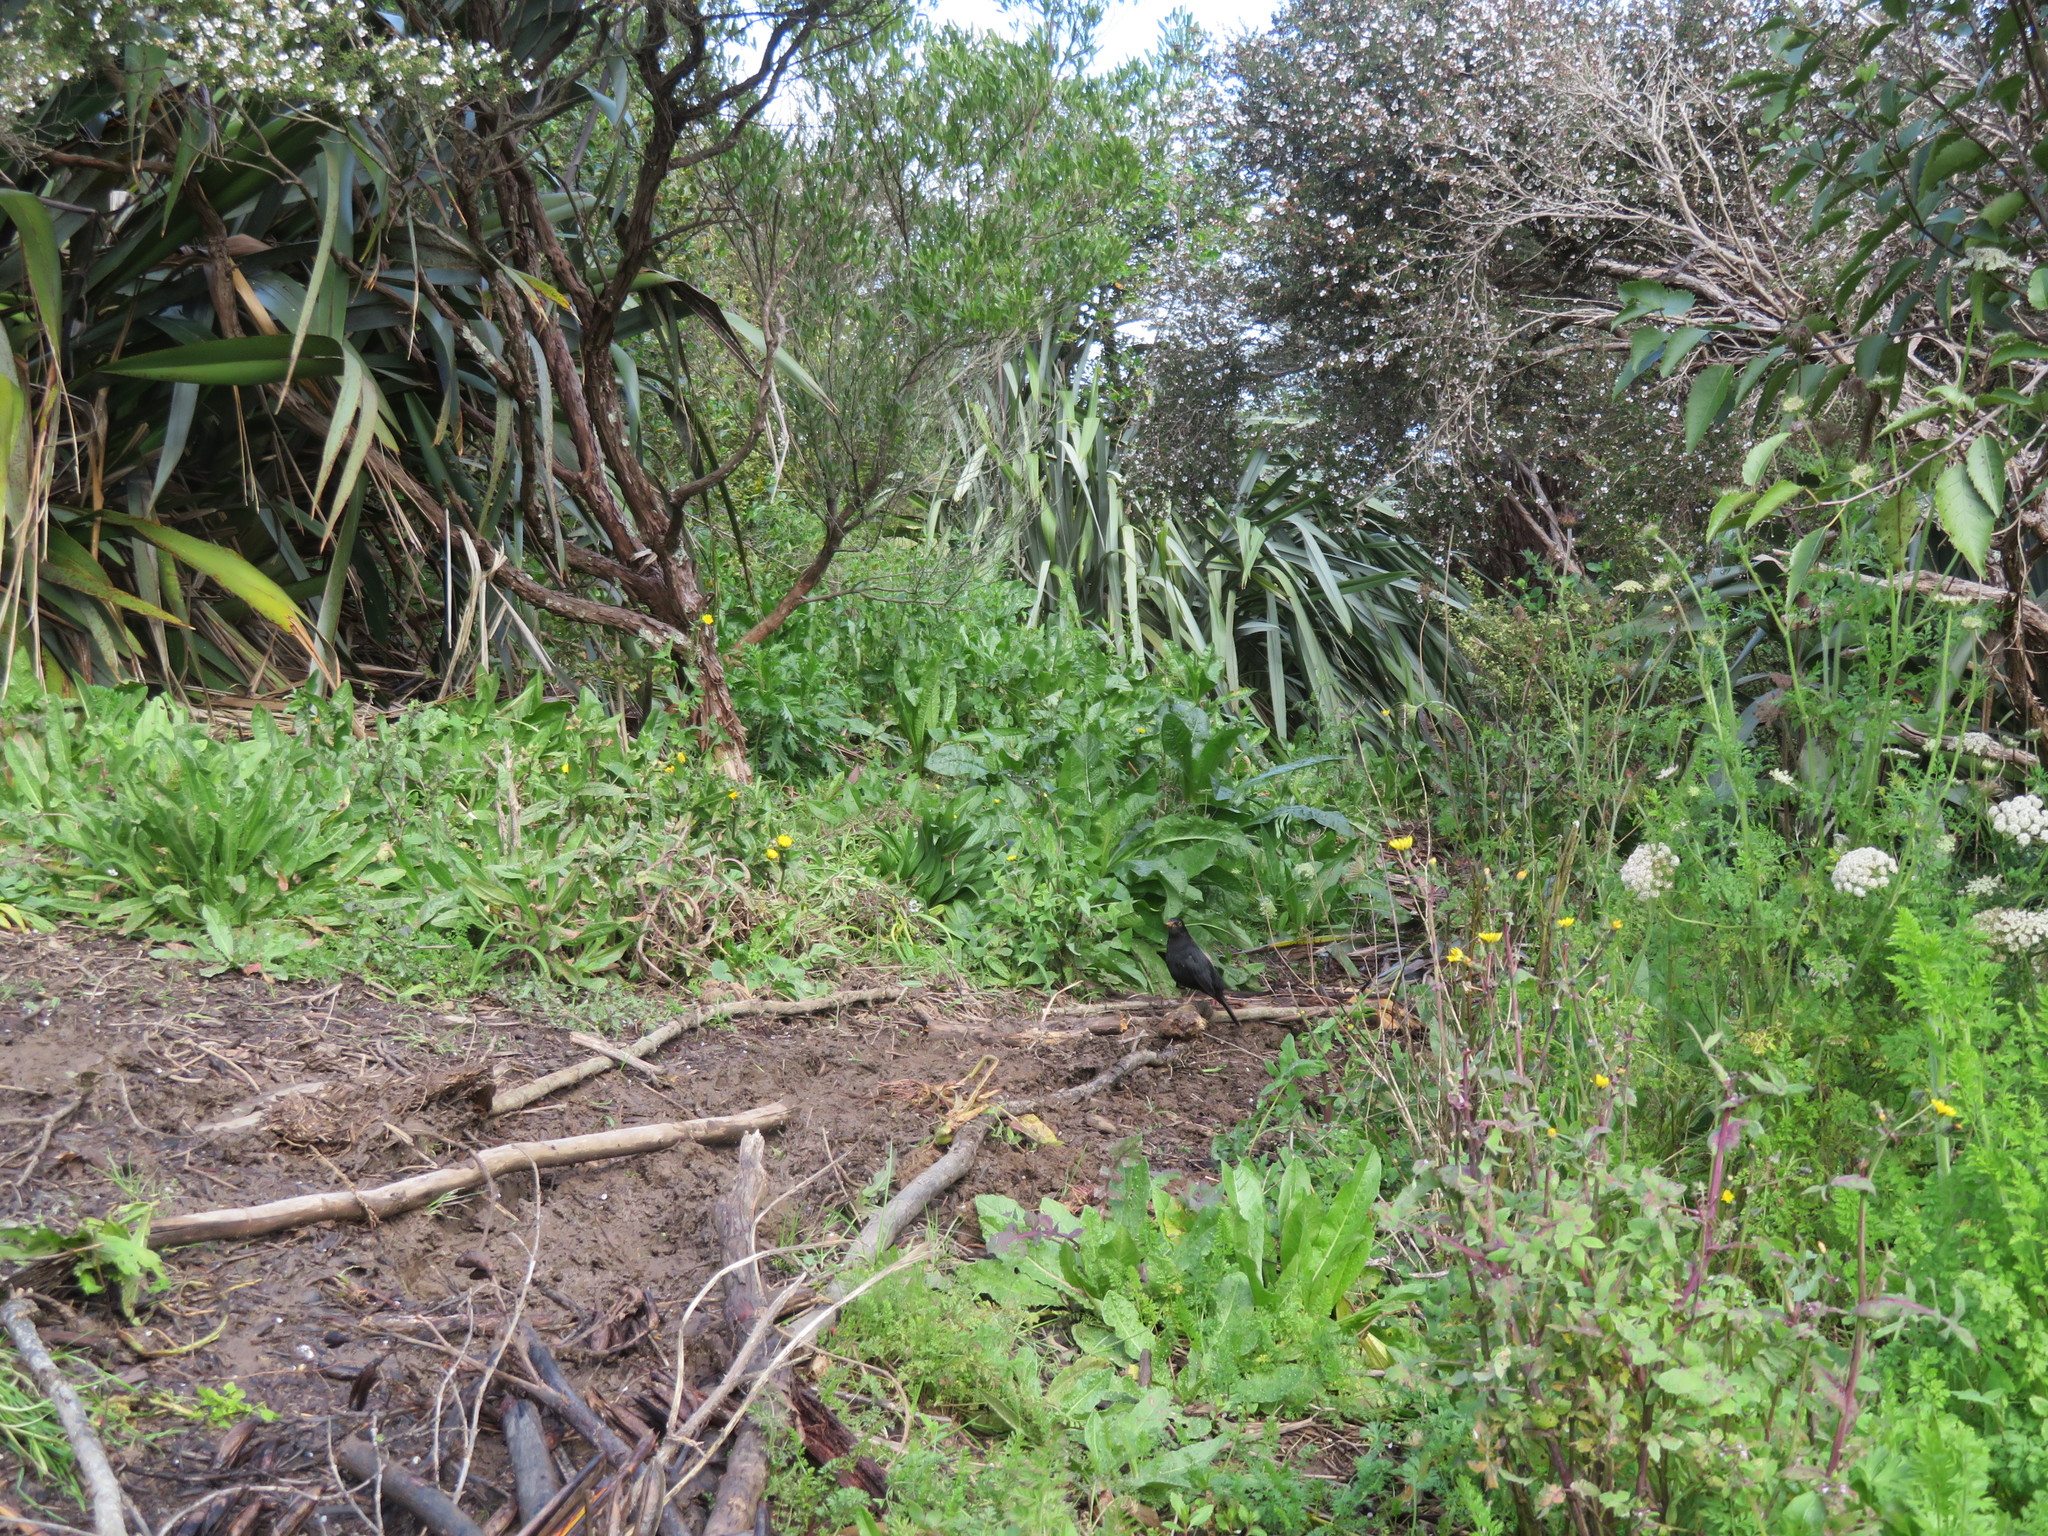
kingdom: Animalia
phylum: Chordata
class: Aves
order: Passeriformes
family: Turdidae
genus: Turdus
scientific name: Turdus merula
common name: Common blackbird
